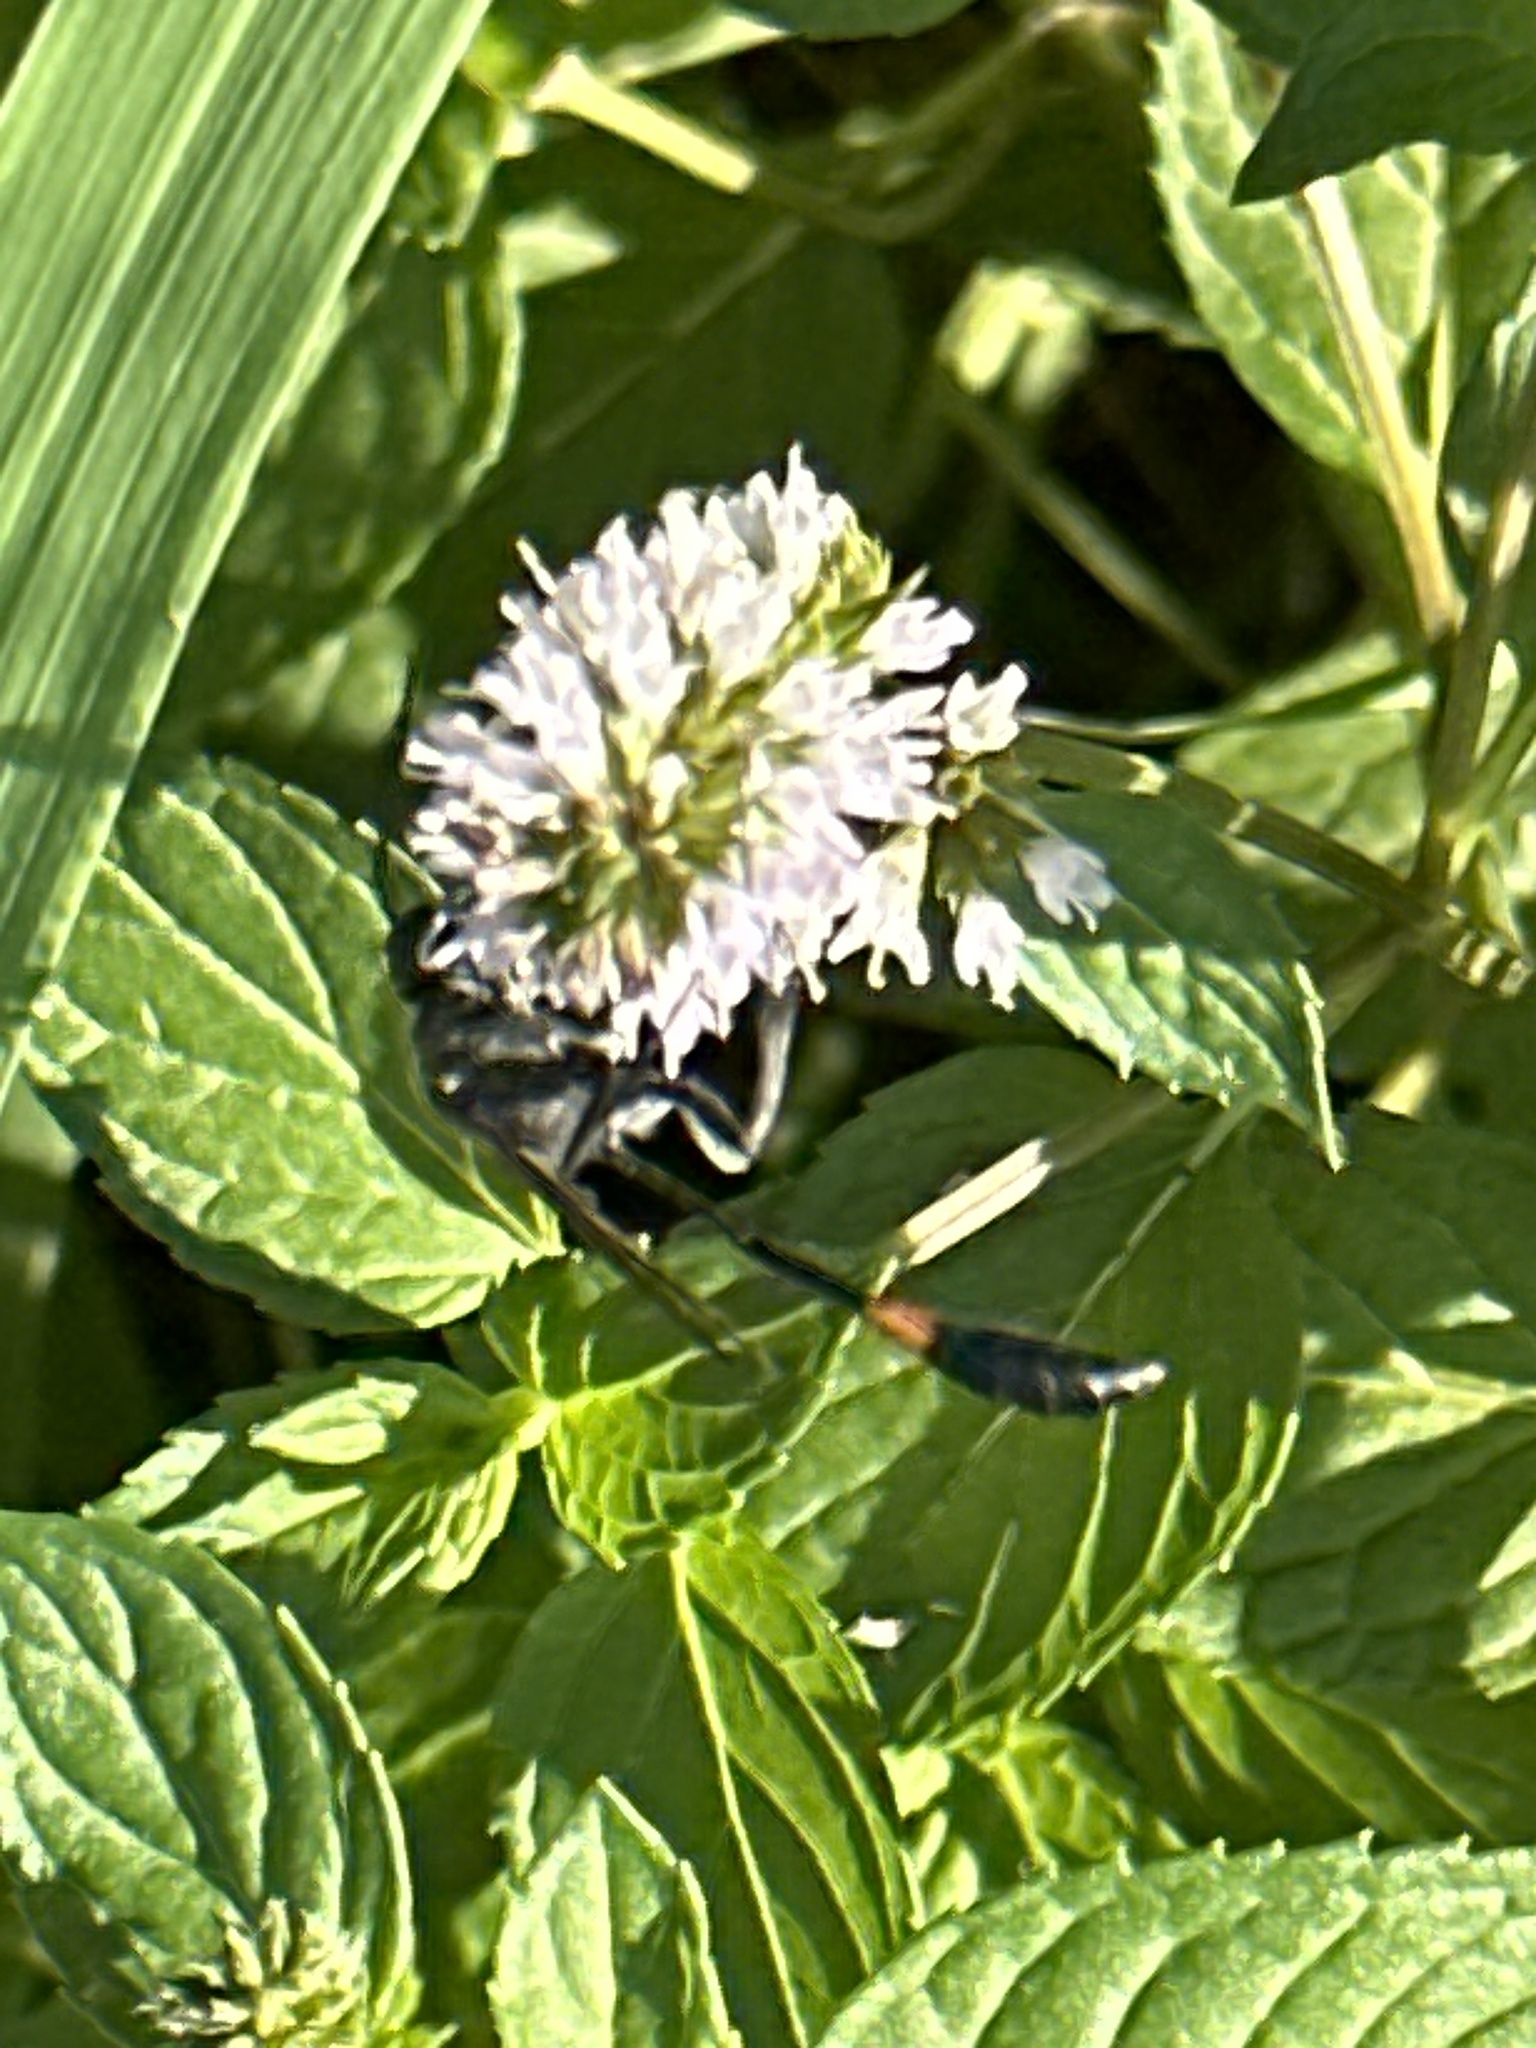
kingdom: Animalia
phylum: Arthropoda
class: Insecta
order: Hymenoptera
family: Sphecidae
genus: Ammophila
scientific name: Ammophila procera
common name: Common thread-waisted wasp
